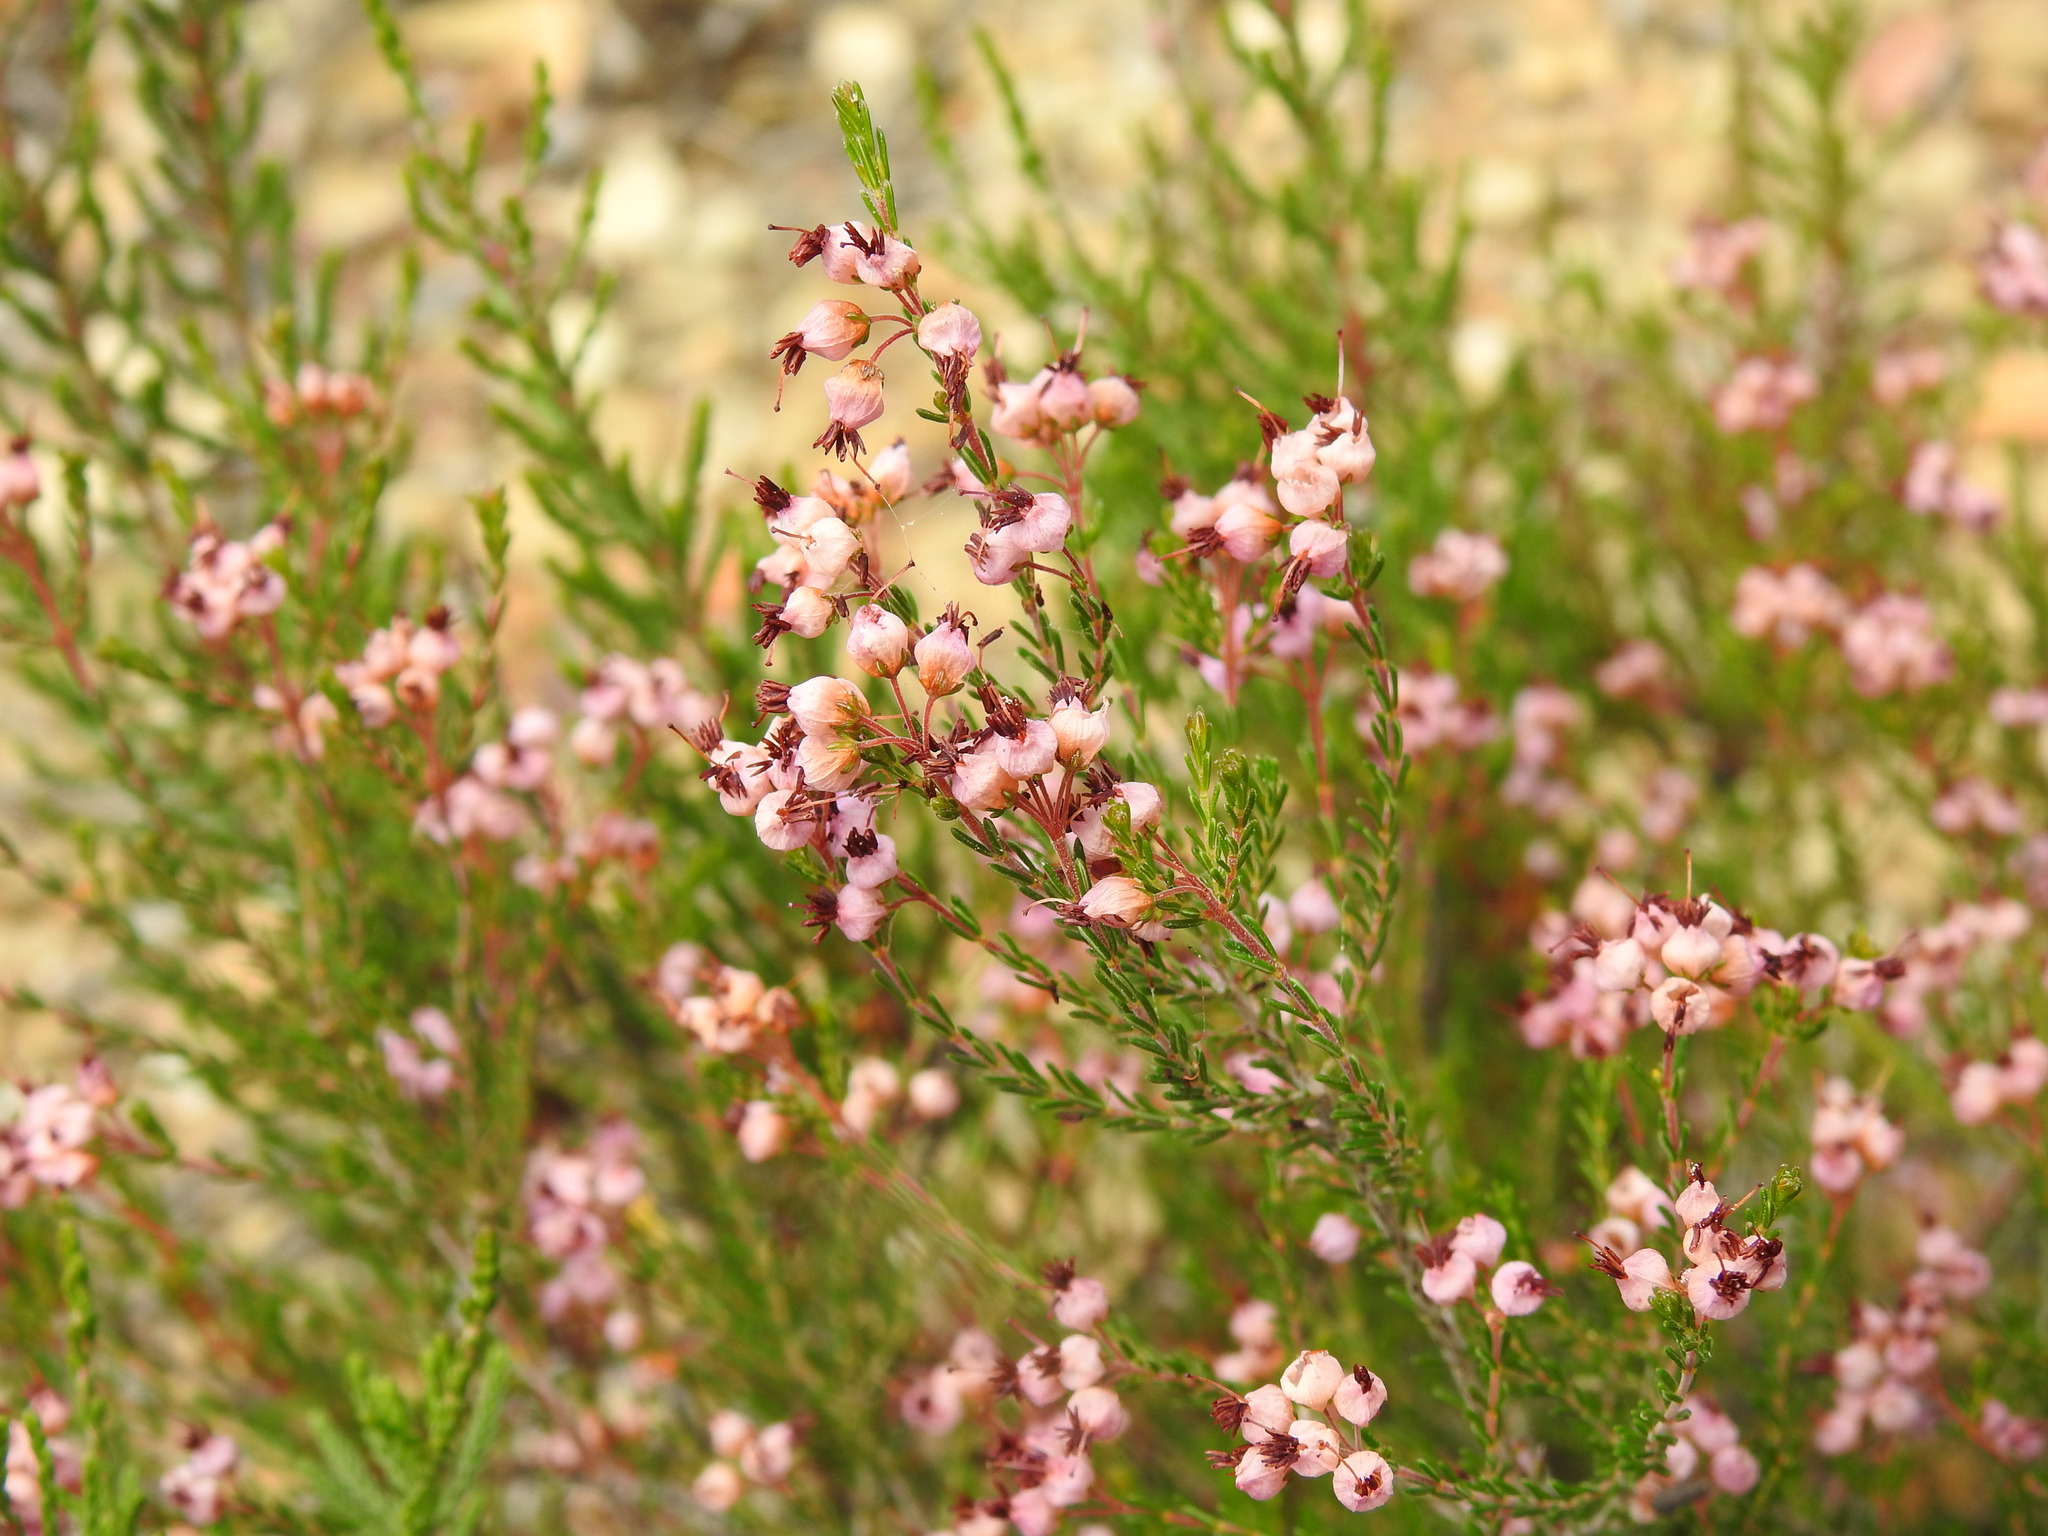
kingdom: Plantae
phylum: Tracheophyta
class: Magnoliopsida
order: Ericales
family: Ericaceae
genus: Erica
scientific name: Erica umbellata
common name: Dwarf spanish heath
